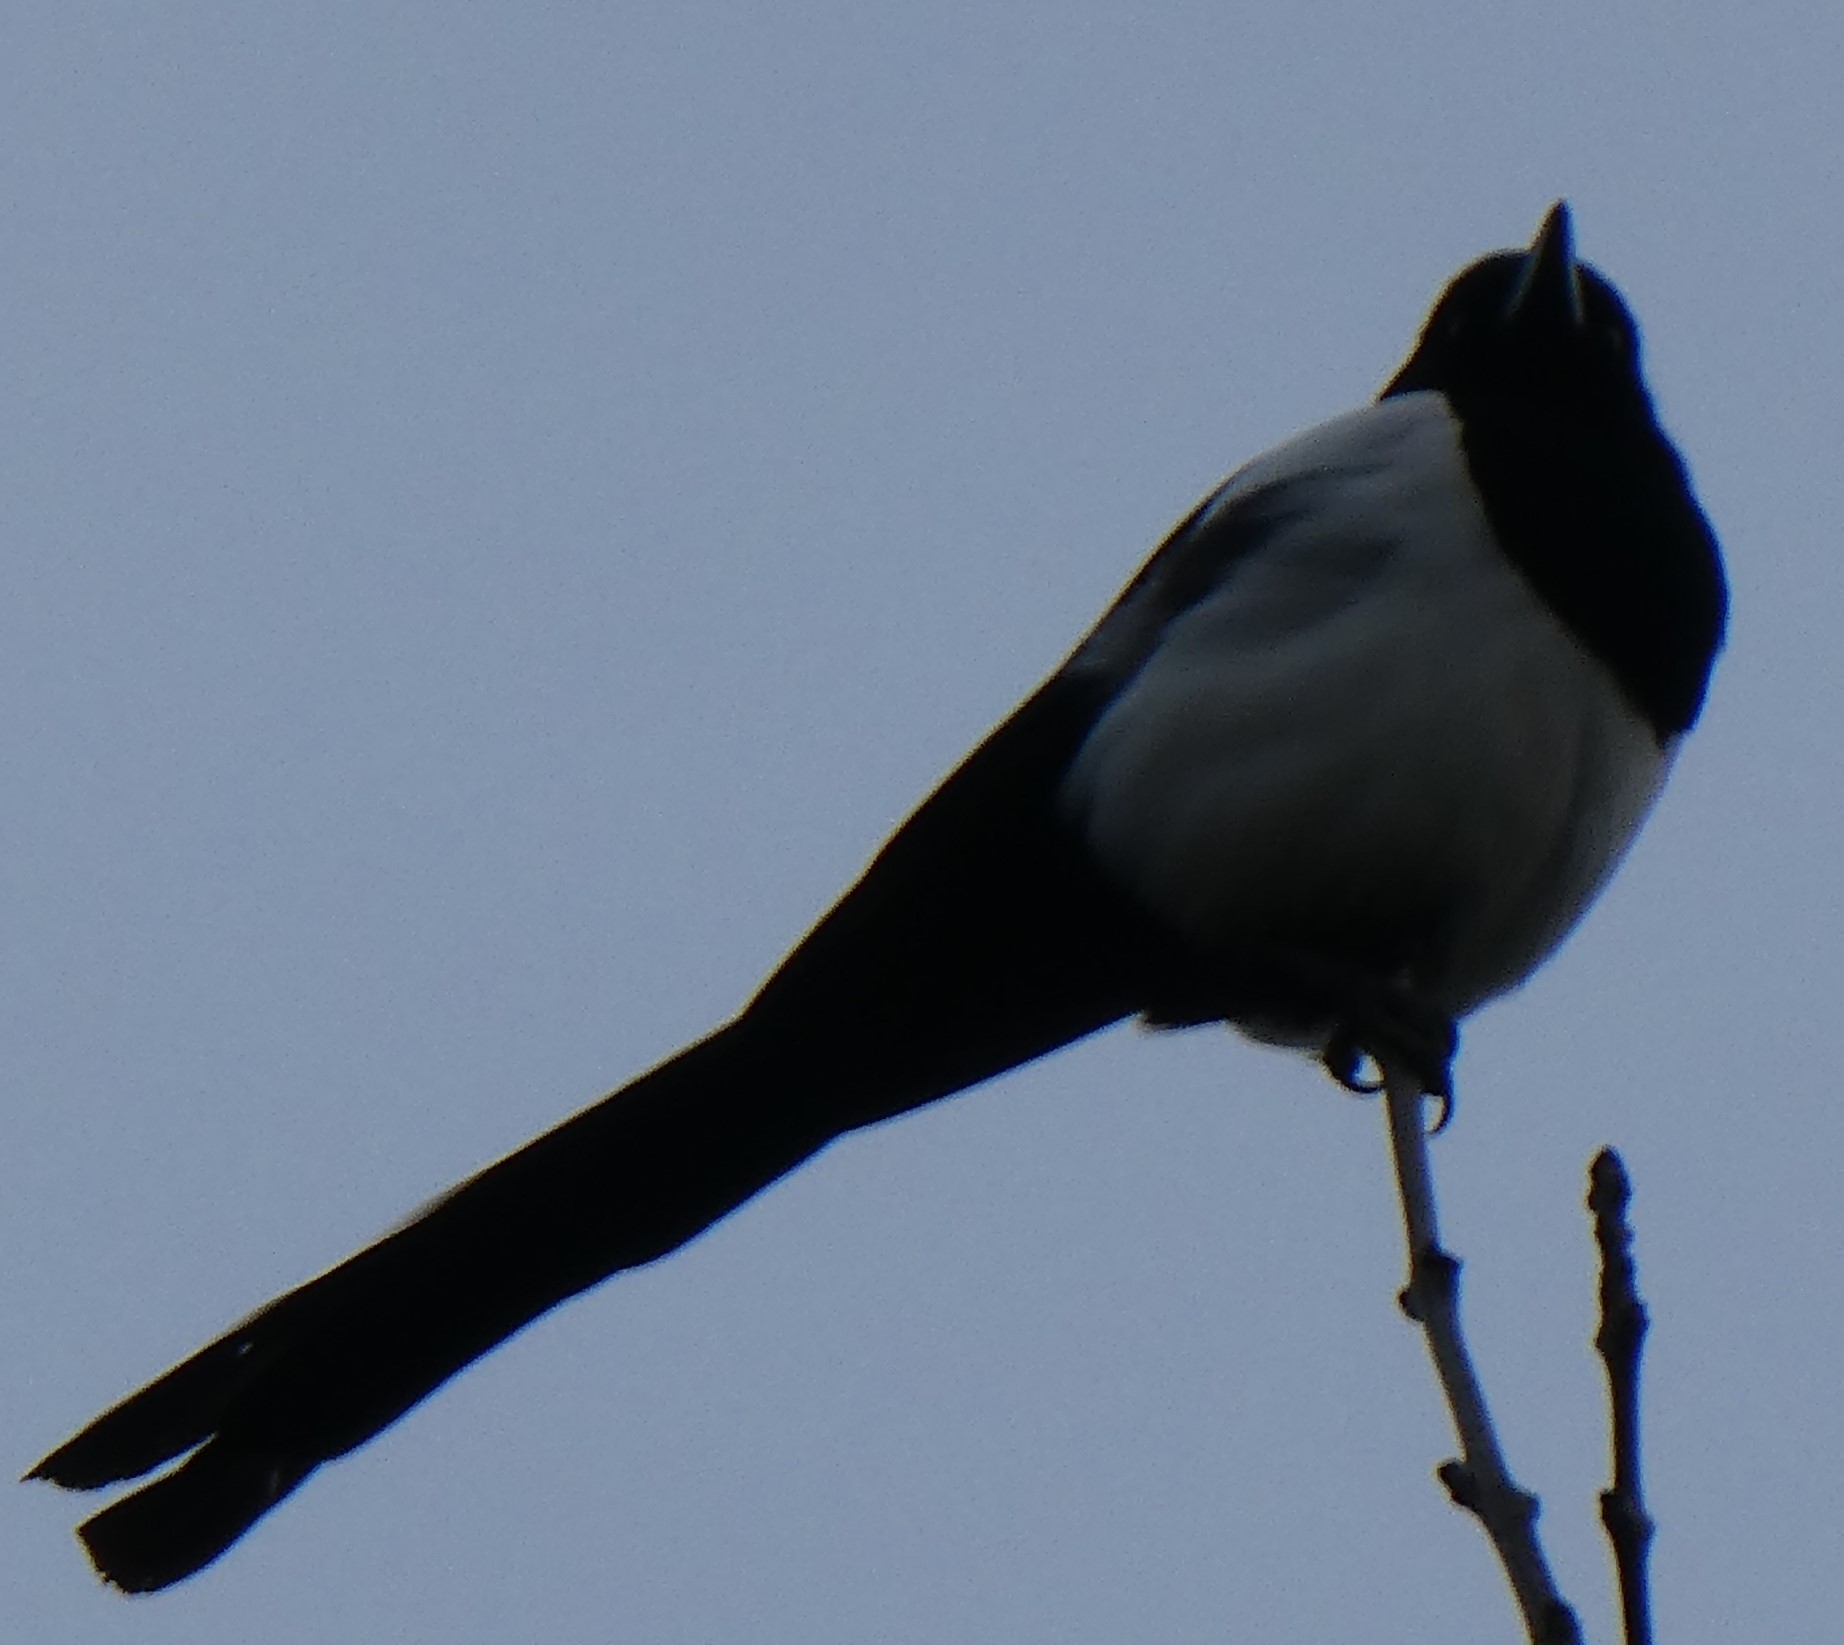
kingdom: Animalia
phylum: Chordata
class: Aves
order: Passeriformes
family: Corvidae
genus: Pica
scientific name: Pica pica
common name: Eurasian magpie
